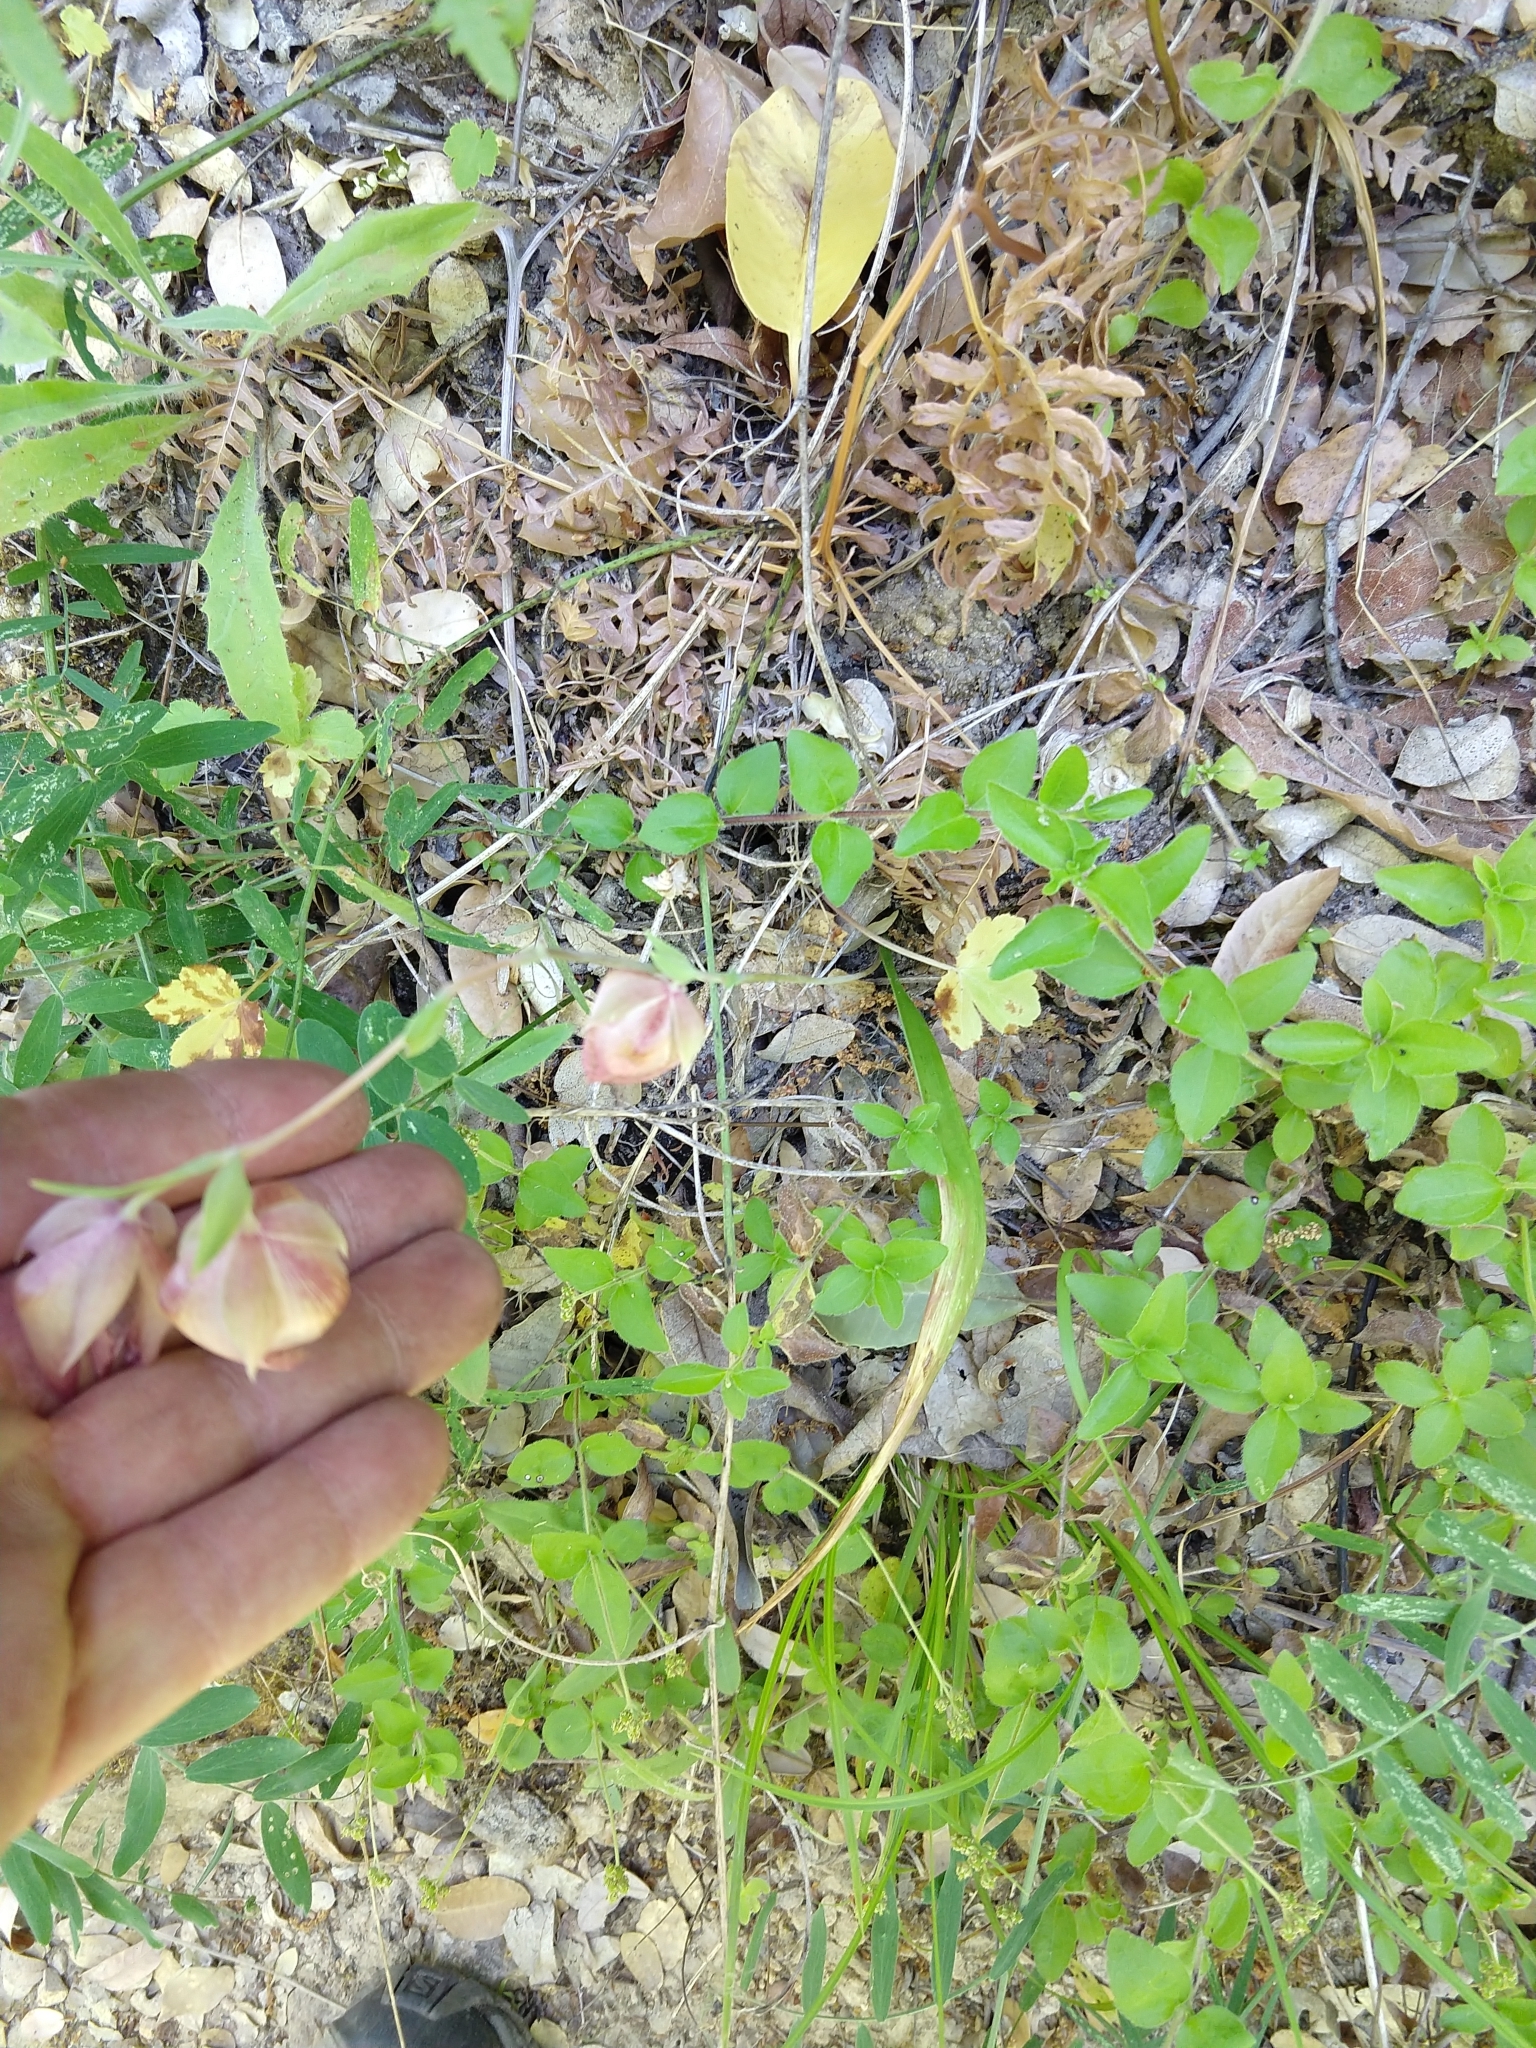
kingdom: Plantae
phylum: Tracheophyta
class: Liliopsida
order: Liliales
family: Liliaceae
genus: Calochortus
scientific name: Calochortus albus
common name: Fairy-lantern
